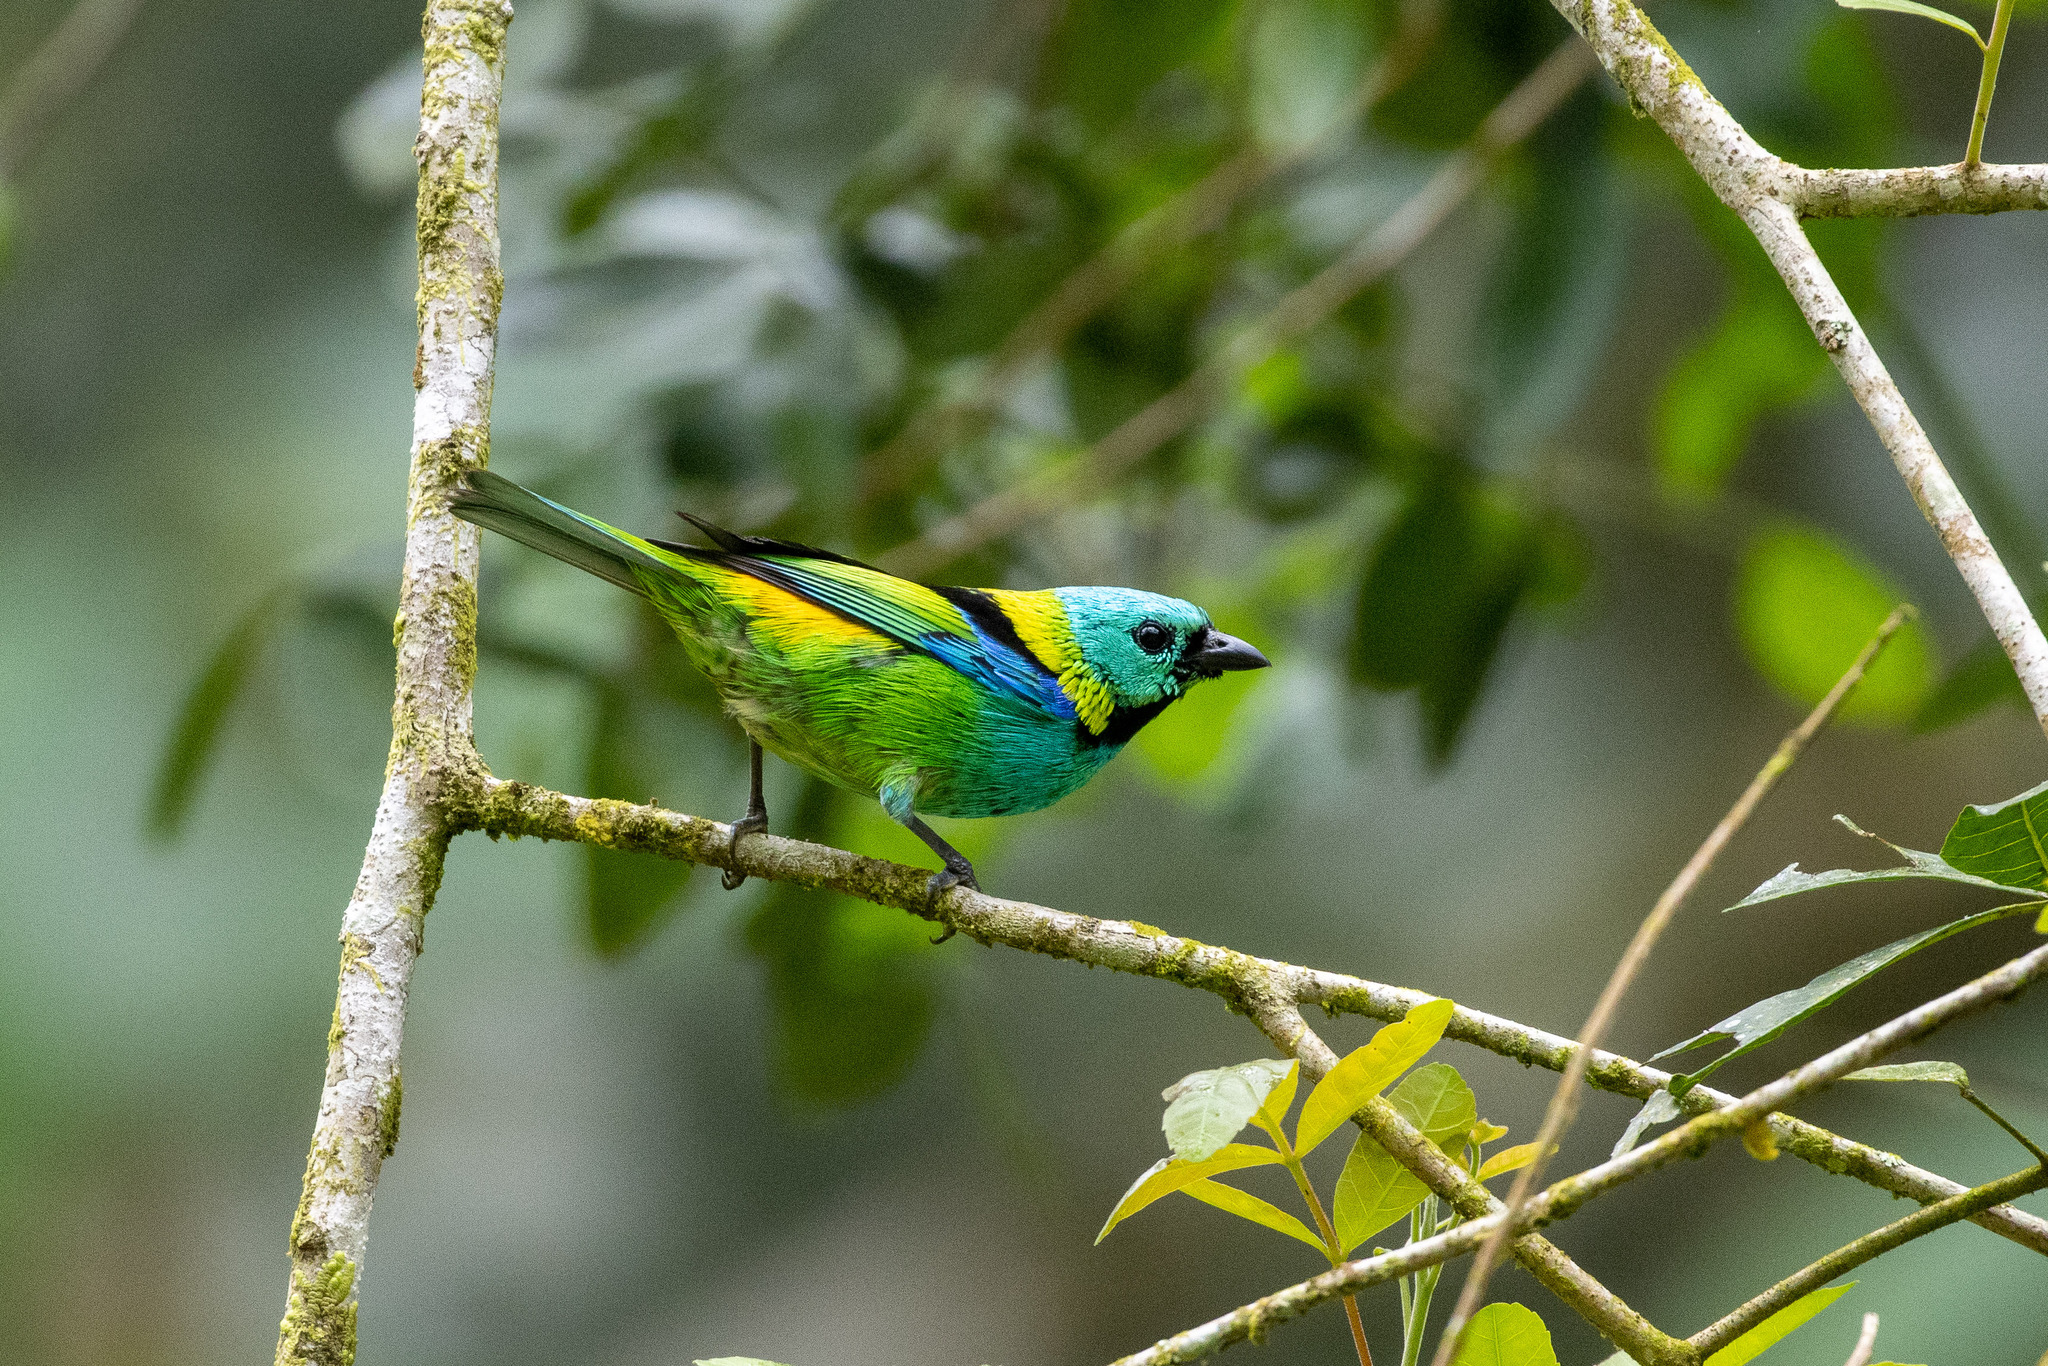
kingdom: Animalia
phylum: Chordata
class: Aves
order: Passeriformes
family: Thraupidae
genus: Tangara
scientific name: Tangara seledon
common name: Green-headed tanager
